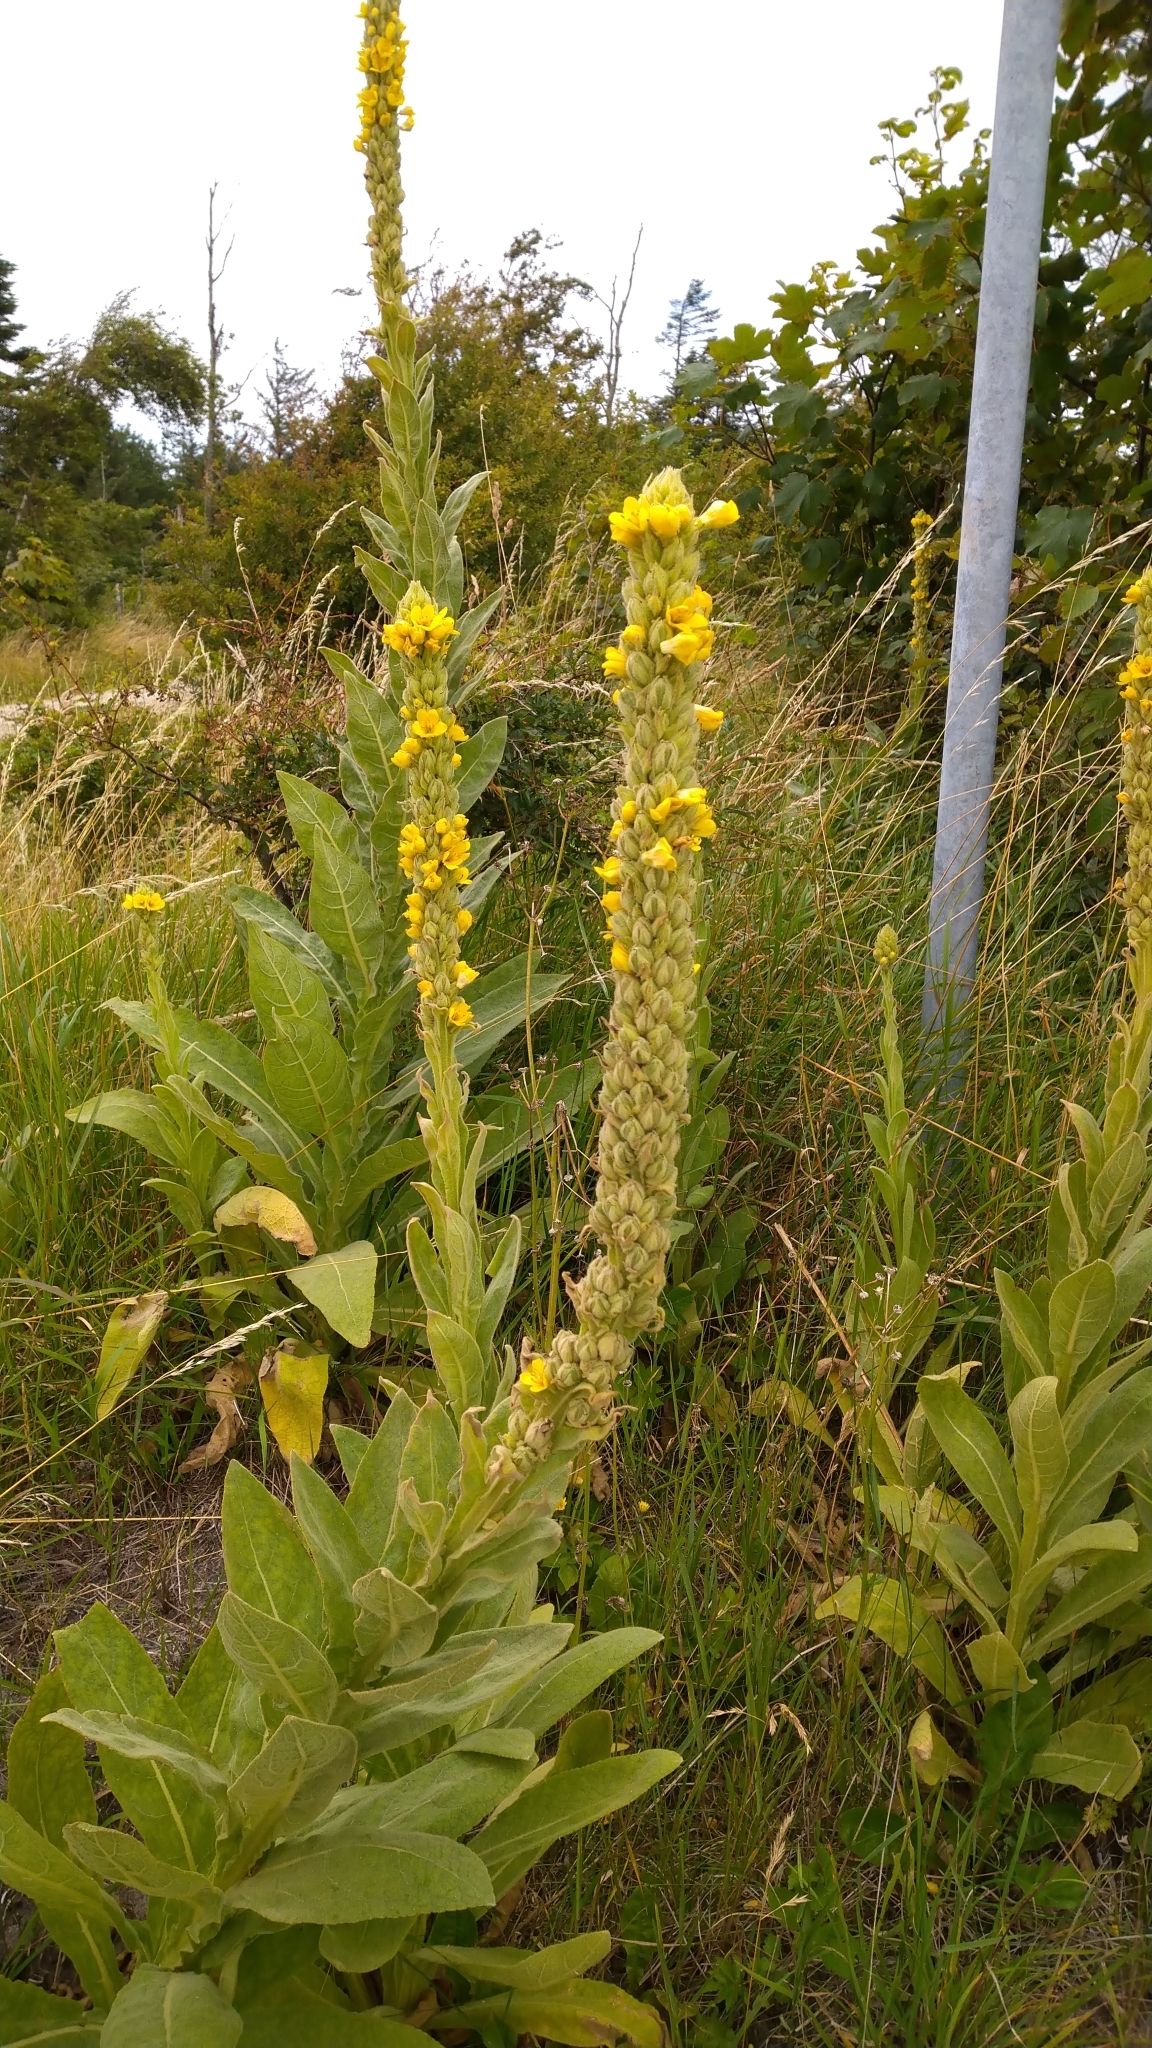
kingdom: Plantae
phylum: Tracheophyta
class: Magnoliopsida
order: Lamiales
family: Scrophulariaceae
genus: Verbascum
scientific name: Verbascum thapsus
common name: Common mullein
